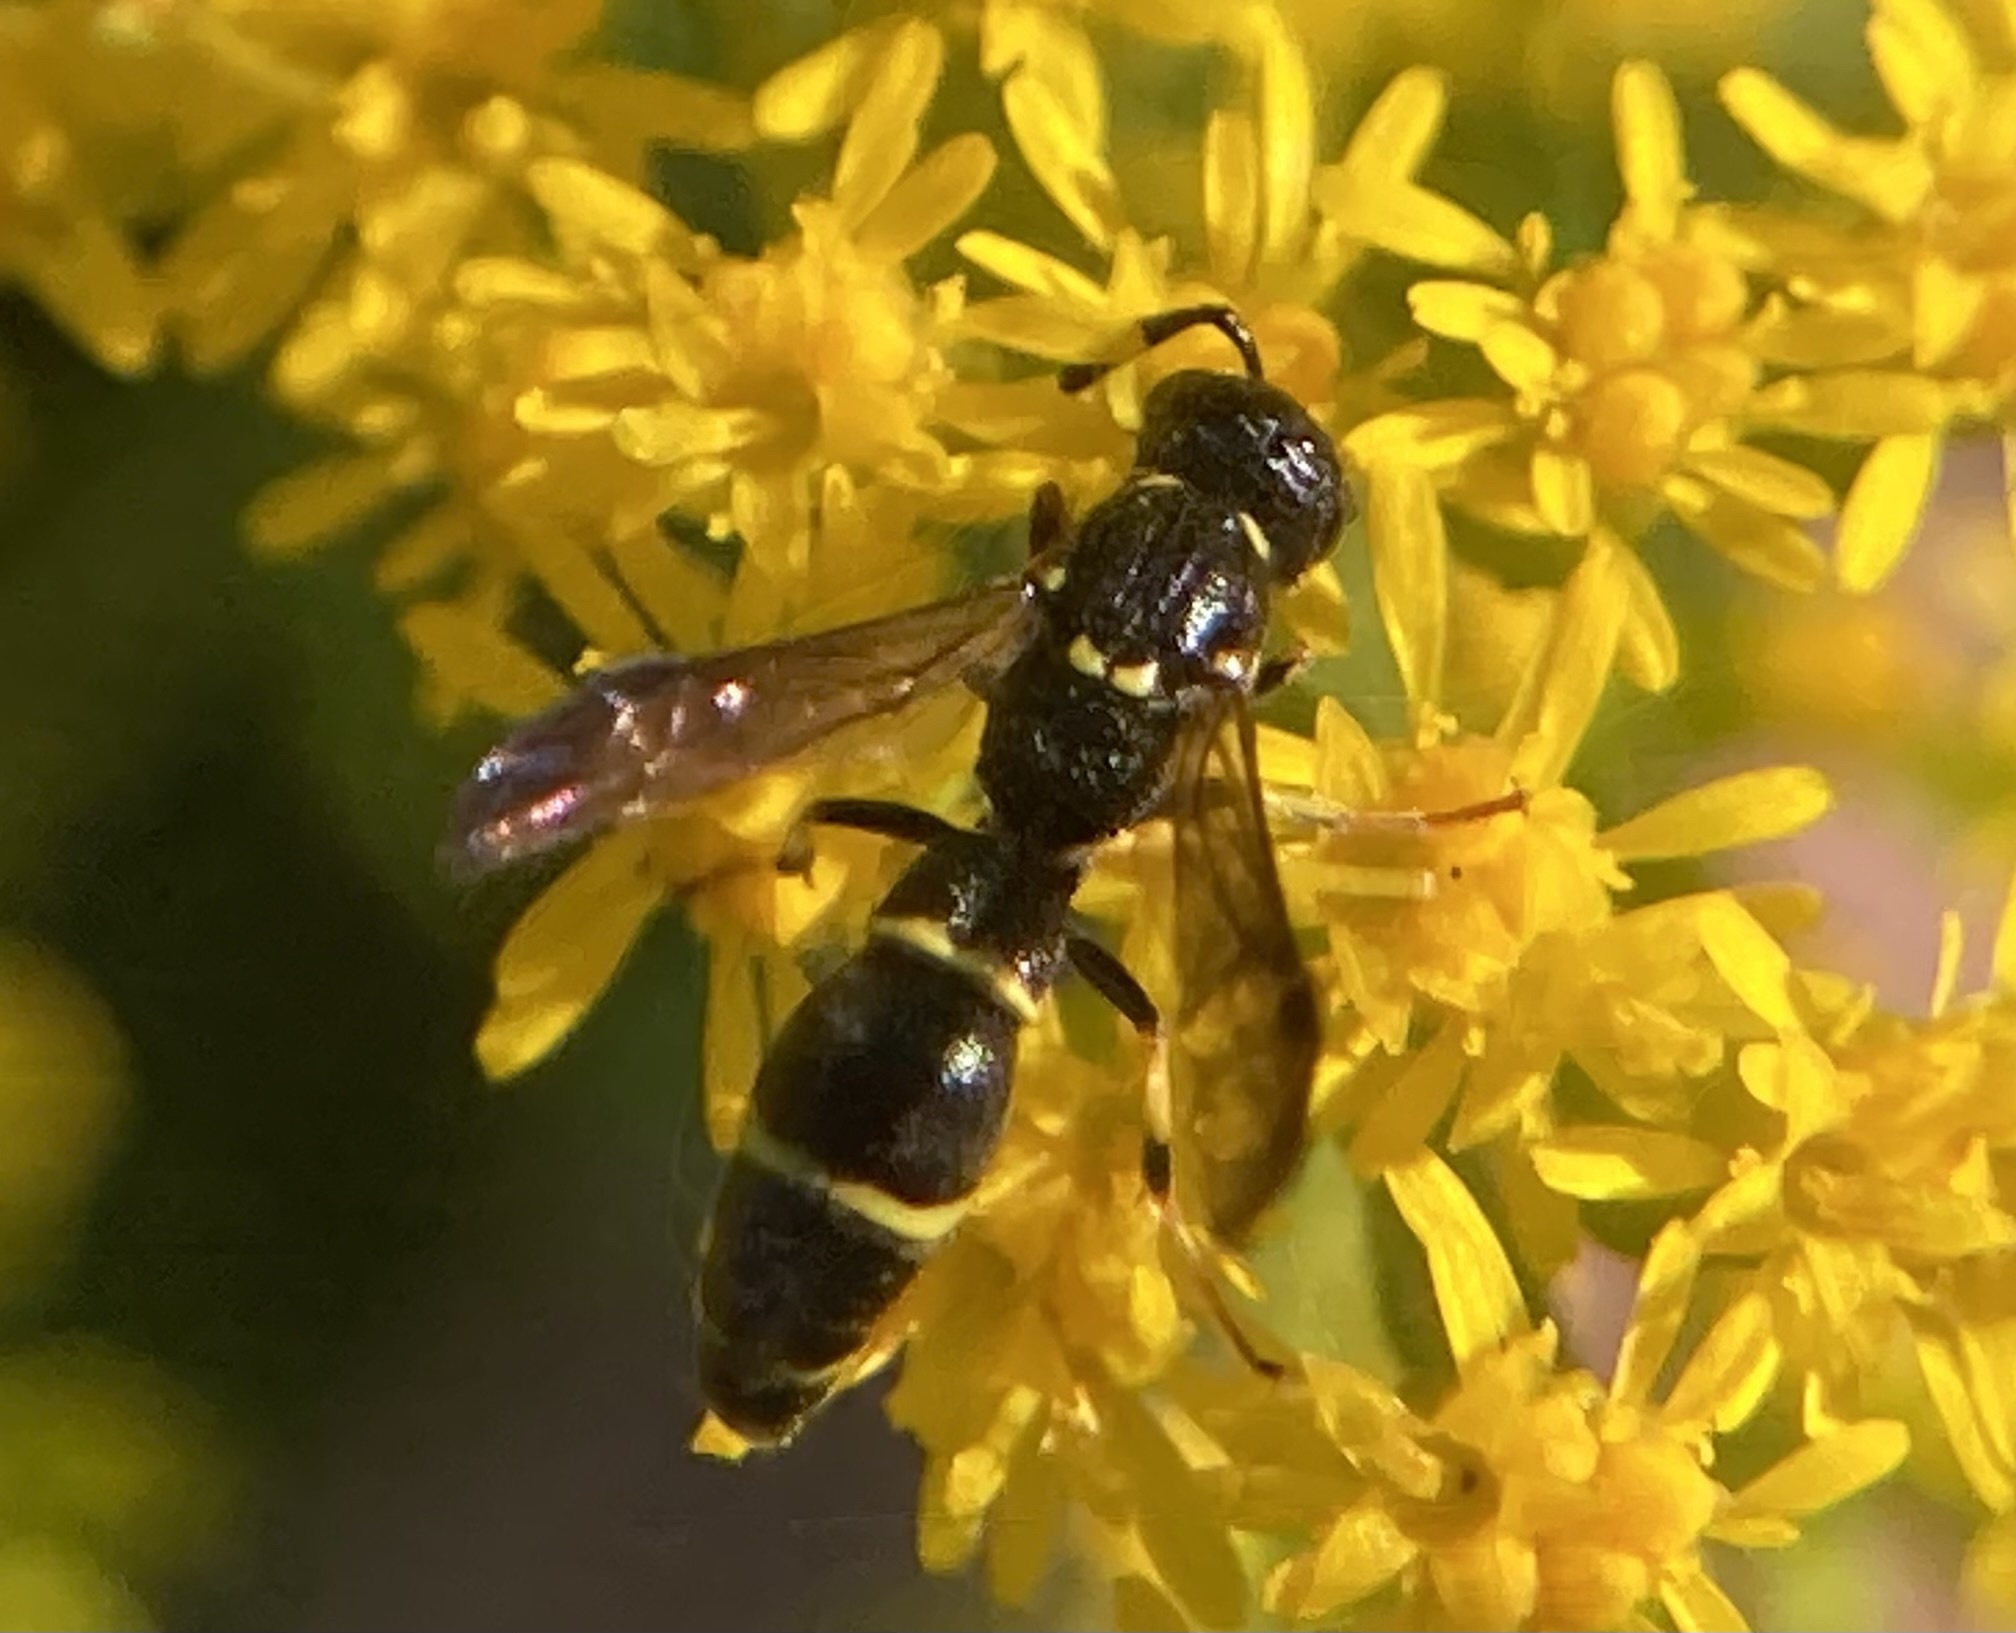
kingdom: Animalia
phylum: Arthropoda
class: Insecta
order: Hymenoptera
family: Eumenidae
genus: Symmorphus
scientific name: Symmorphus
